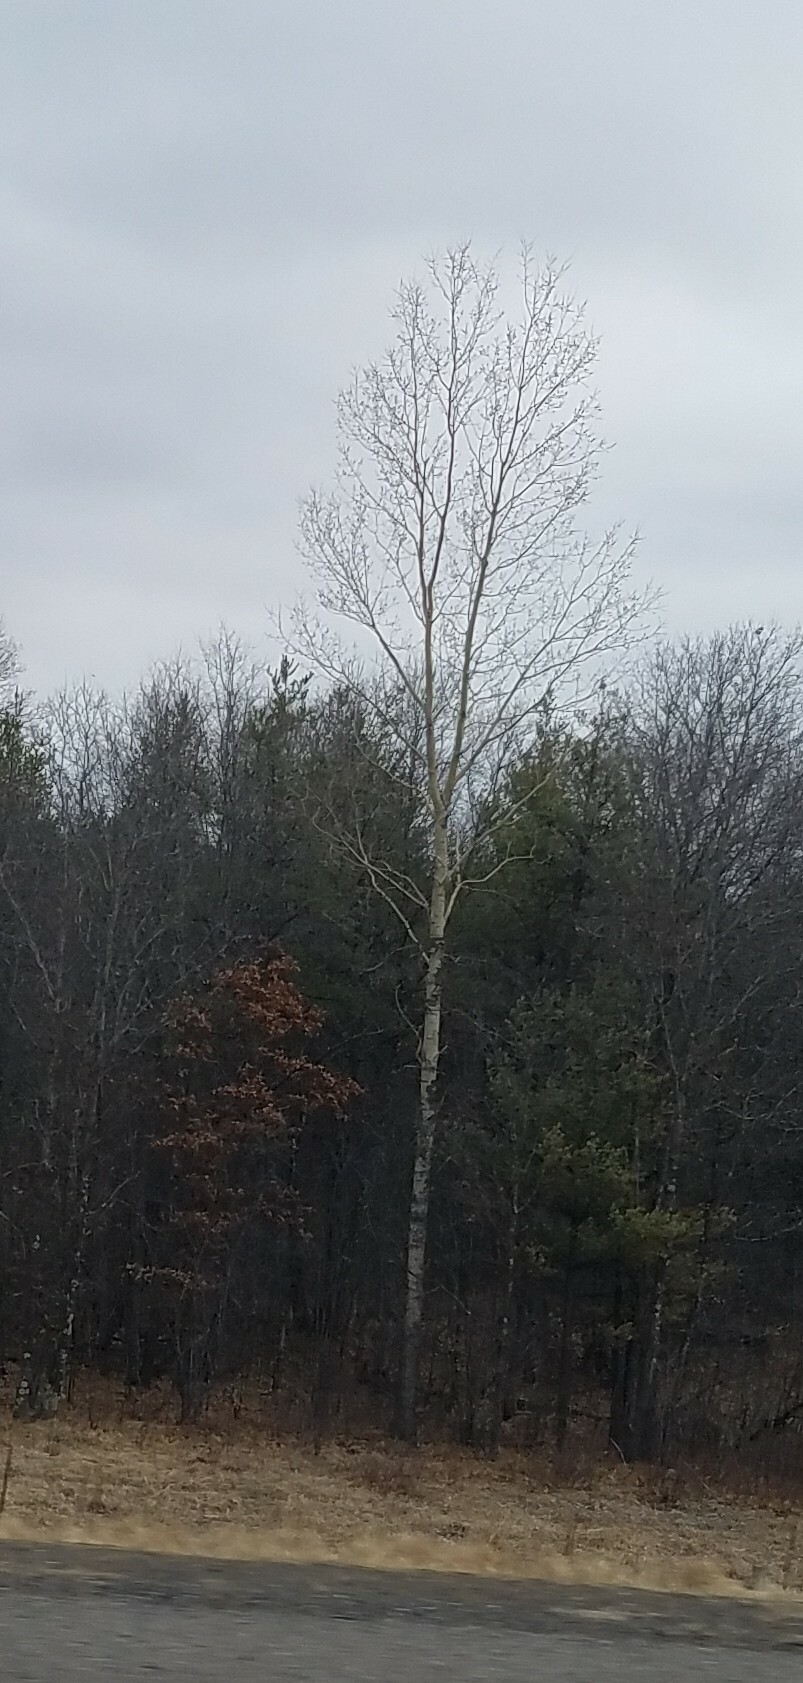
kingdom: Plantae
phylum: Tracheophyta
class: Magnoliopsida
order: Malpighiales
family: Salicaceae
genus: Populus
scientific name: Populus tremuloides
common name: Quaking aspen
